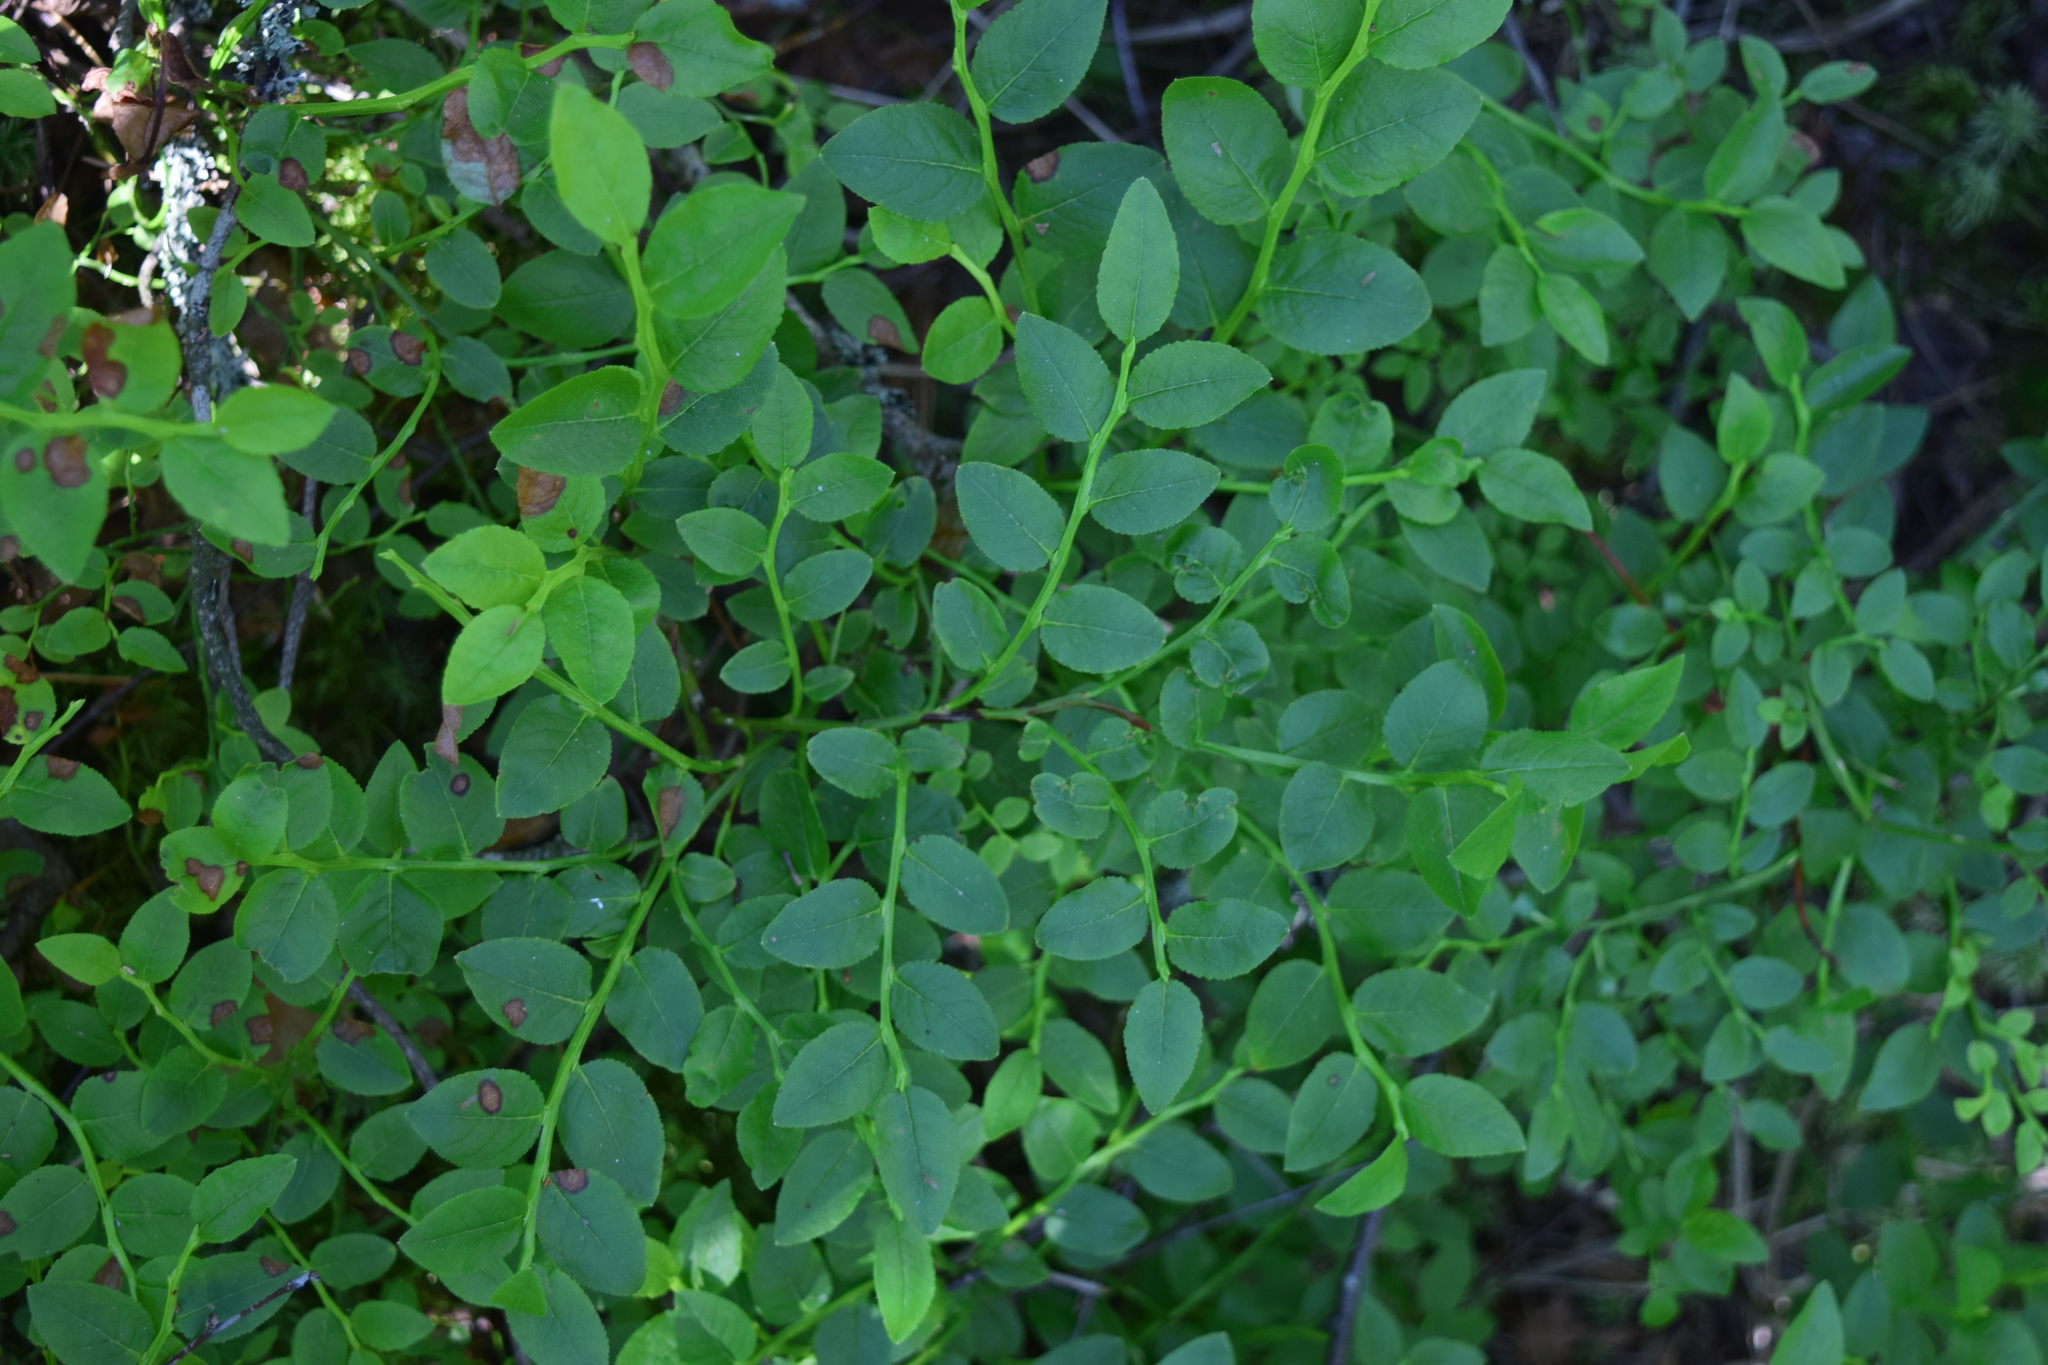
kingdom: Plantae
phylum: Tracheophyta
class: Magnoliopsida
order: Ericales
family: Ericaceae
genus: Vaccinium
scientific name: Vaccinium myrtillus
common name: Bilberry
